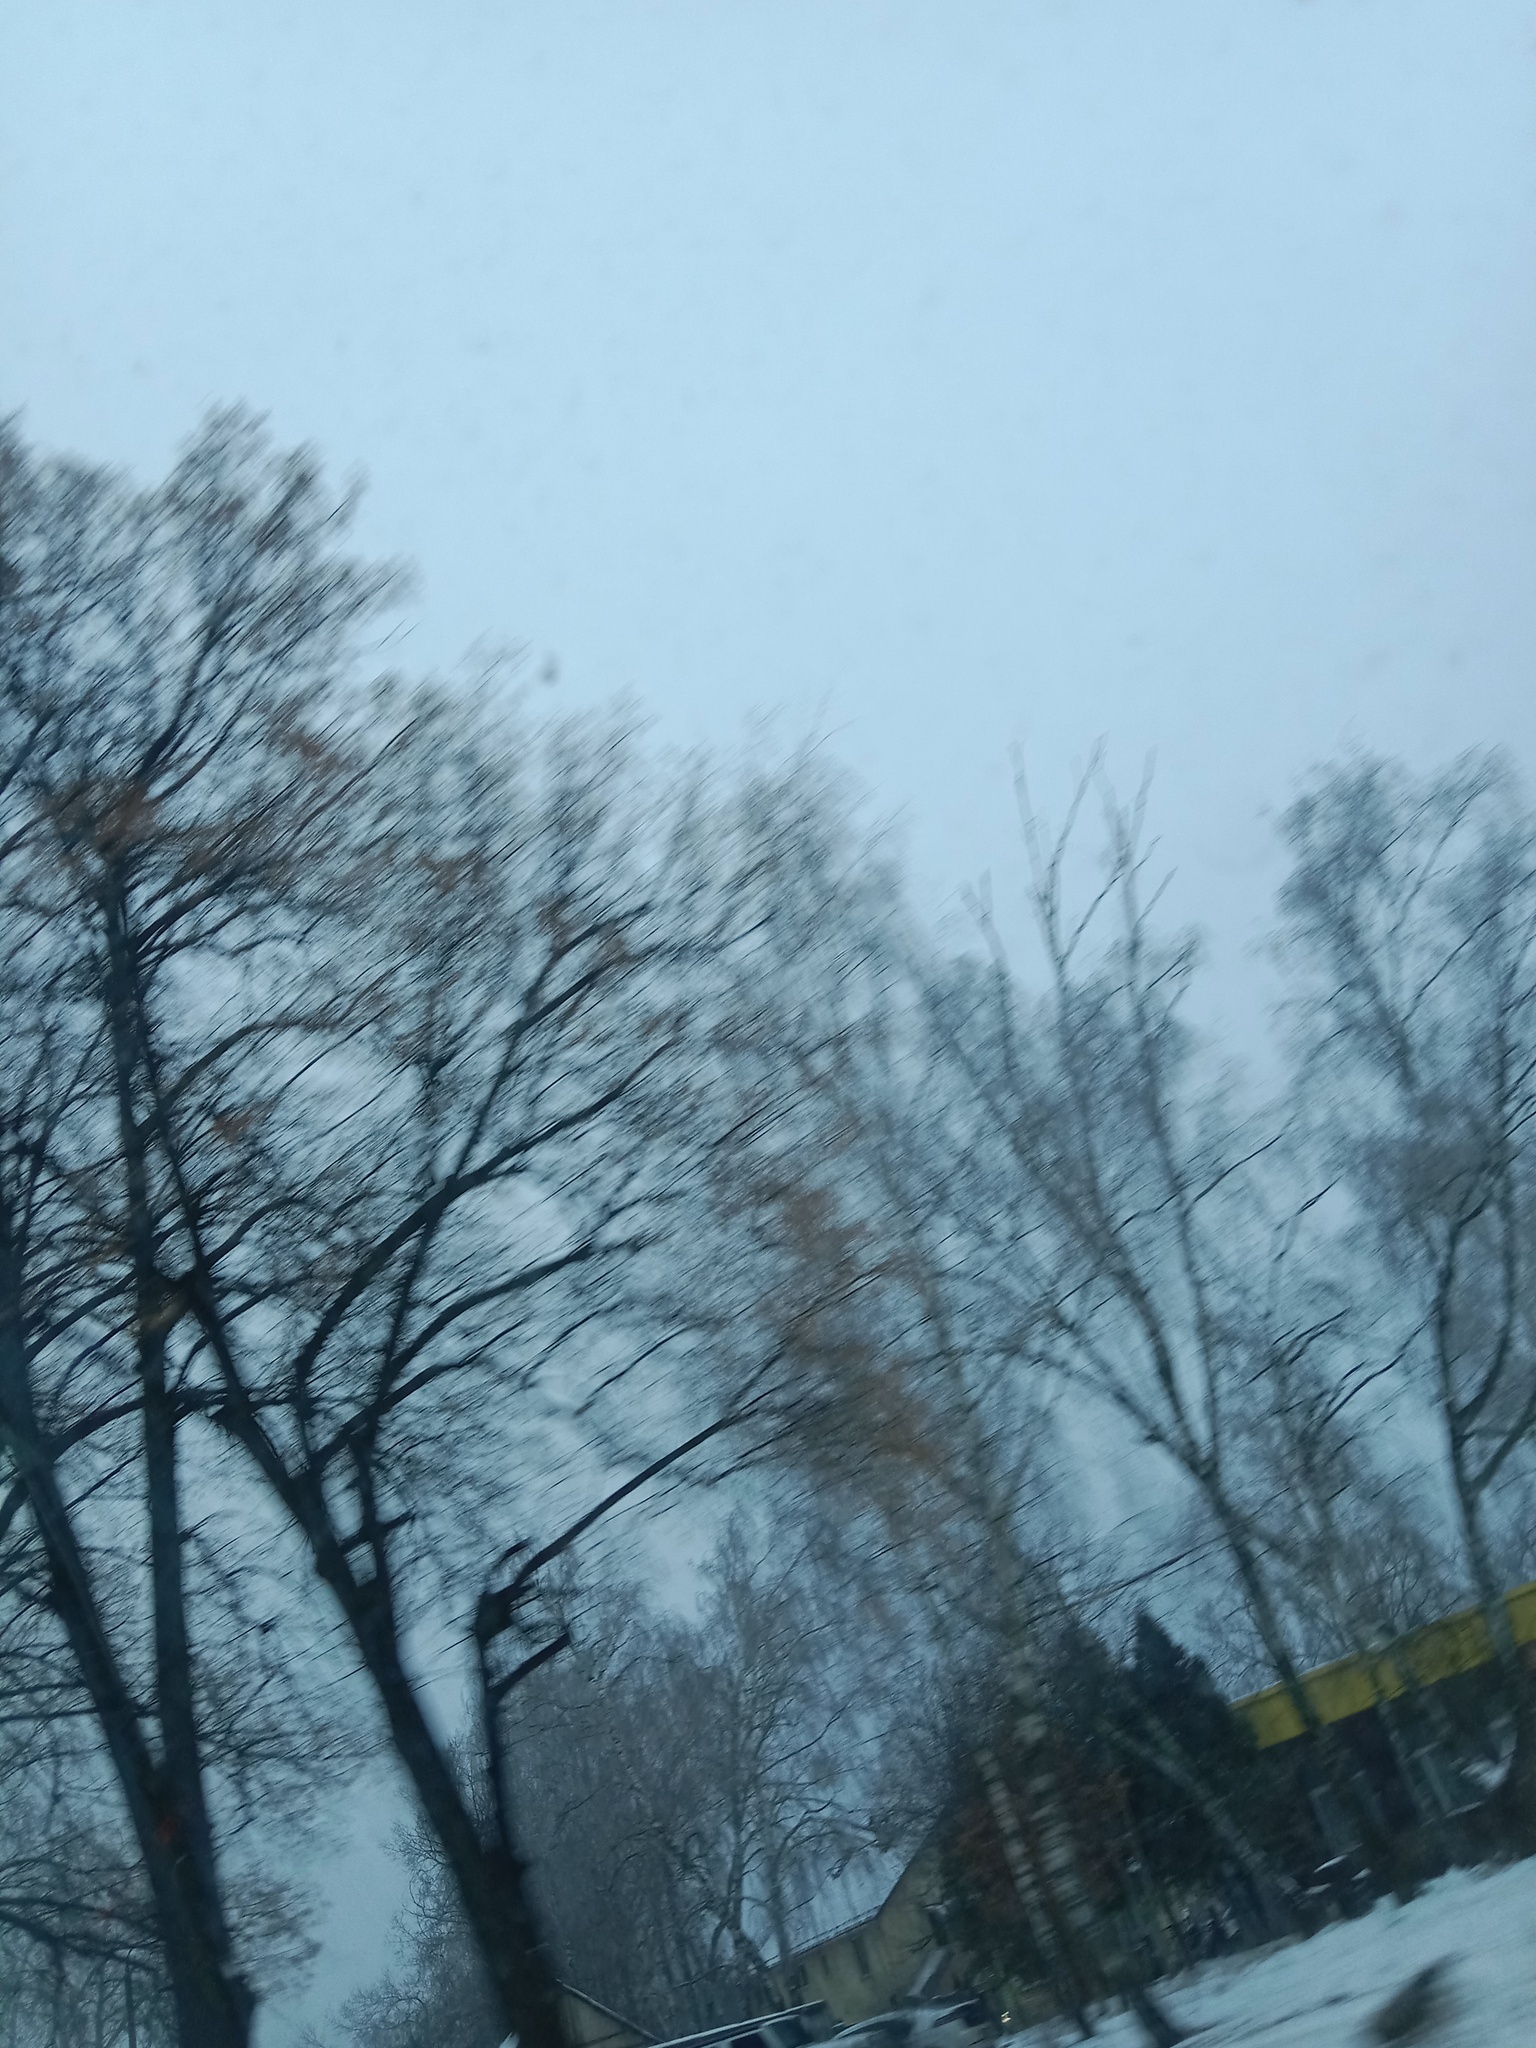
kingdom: Plantae
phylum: Tracheophyta
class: Magnoliopsida
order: Santalales
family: Viscaceae
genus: Viscum
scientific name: Viscum album
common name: Mistletoe
